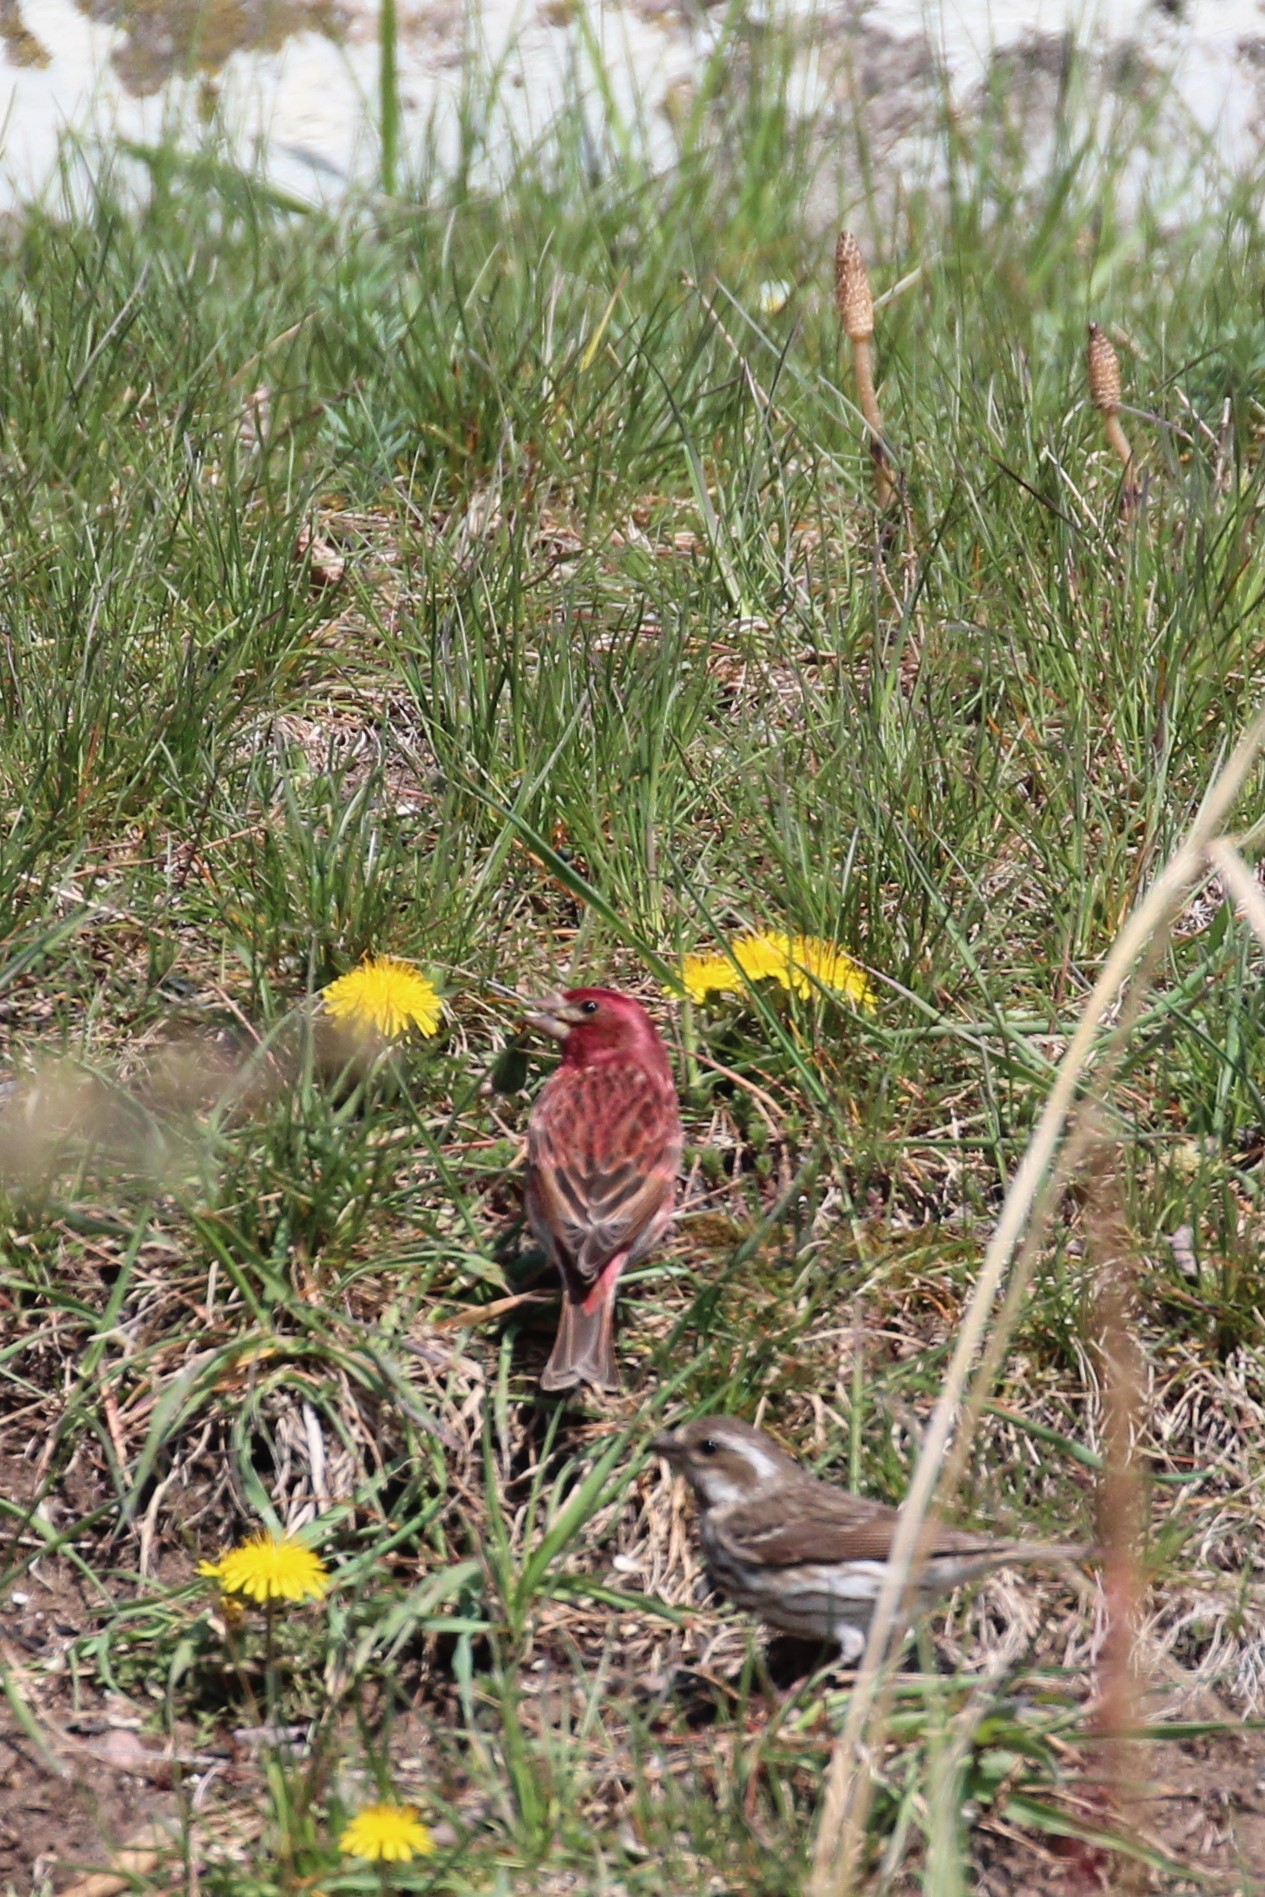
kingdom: Animalia
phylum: Chordata
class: Aves
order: Passeriformes
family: Fringillidae
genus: Haemorhous
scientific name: Haemorhous purpureus
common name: Purple finch
